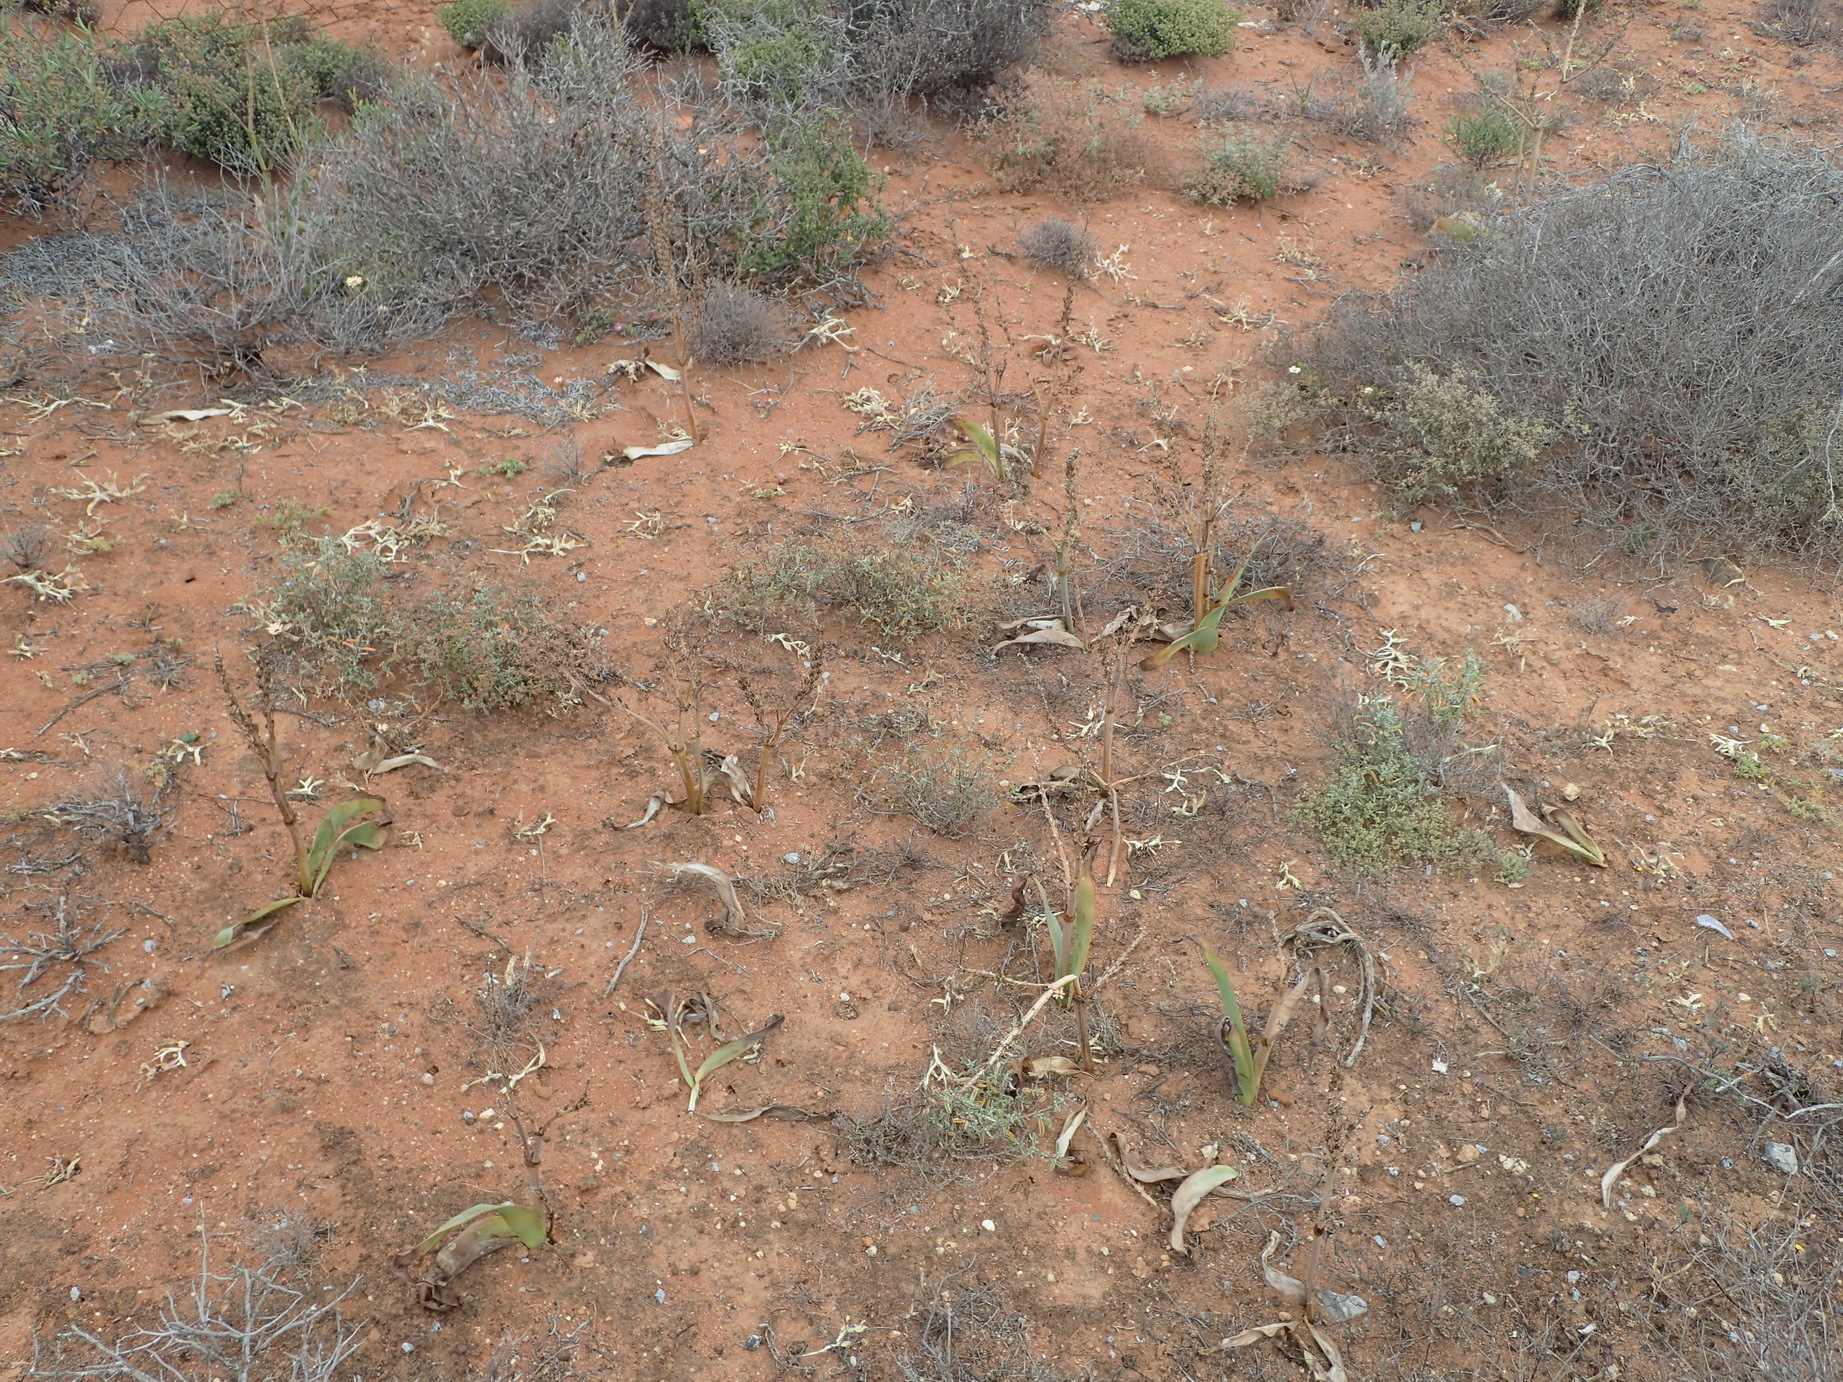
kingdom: Plantae
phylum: Tracheophyta
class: Liliopsida
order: Asparagales
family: Asphodelaceae
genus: Trachyandra
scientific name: Trachyandra falcata
